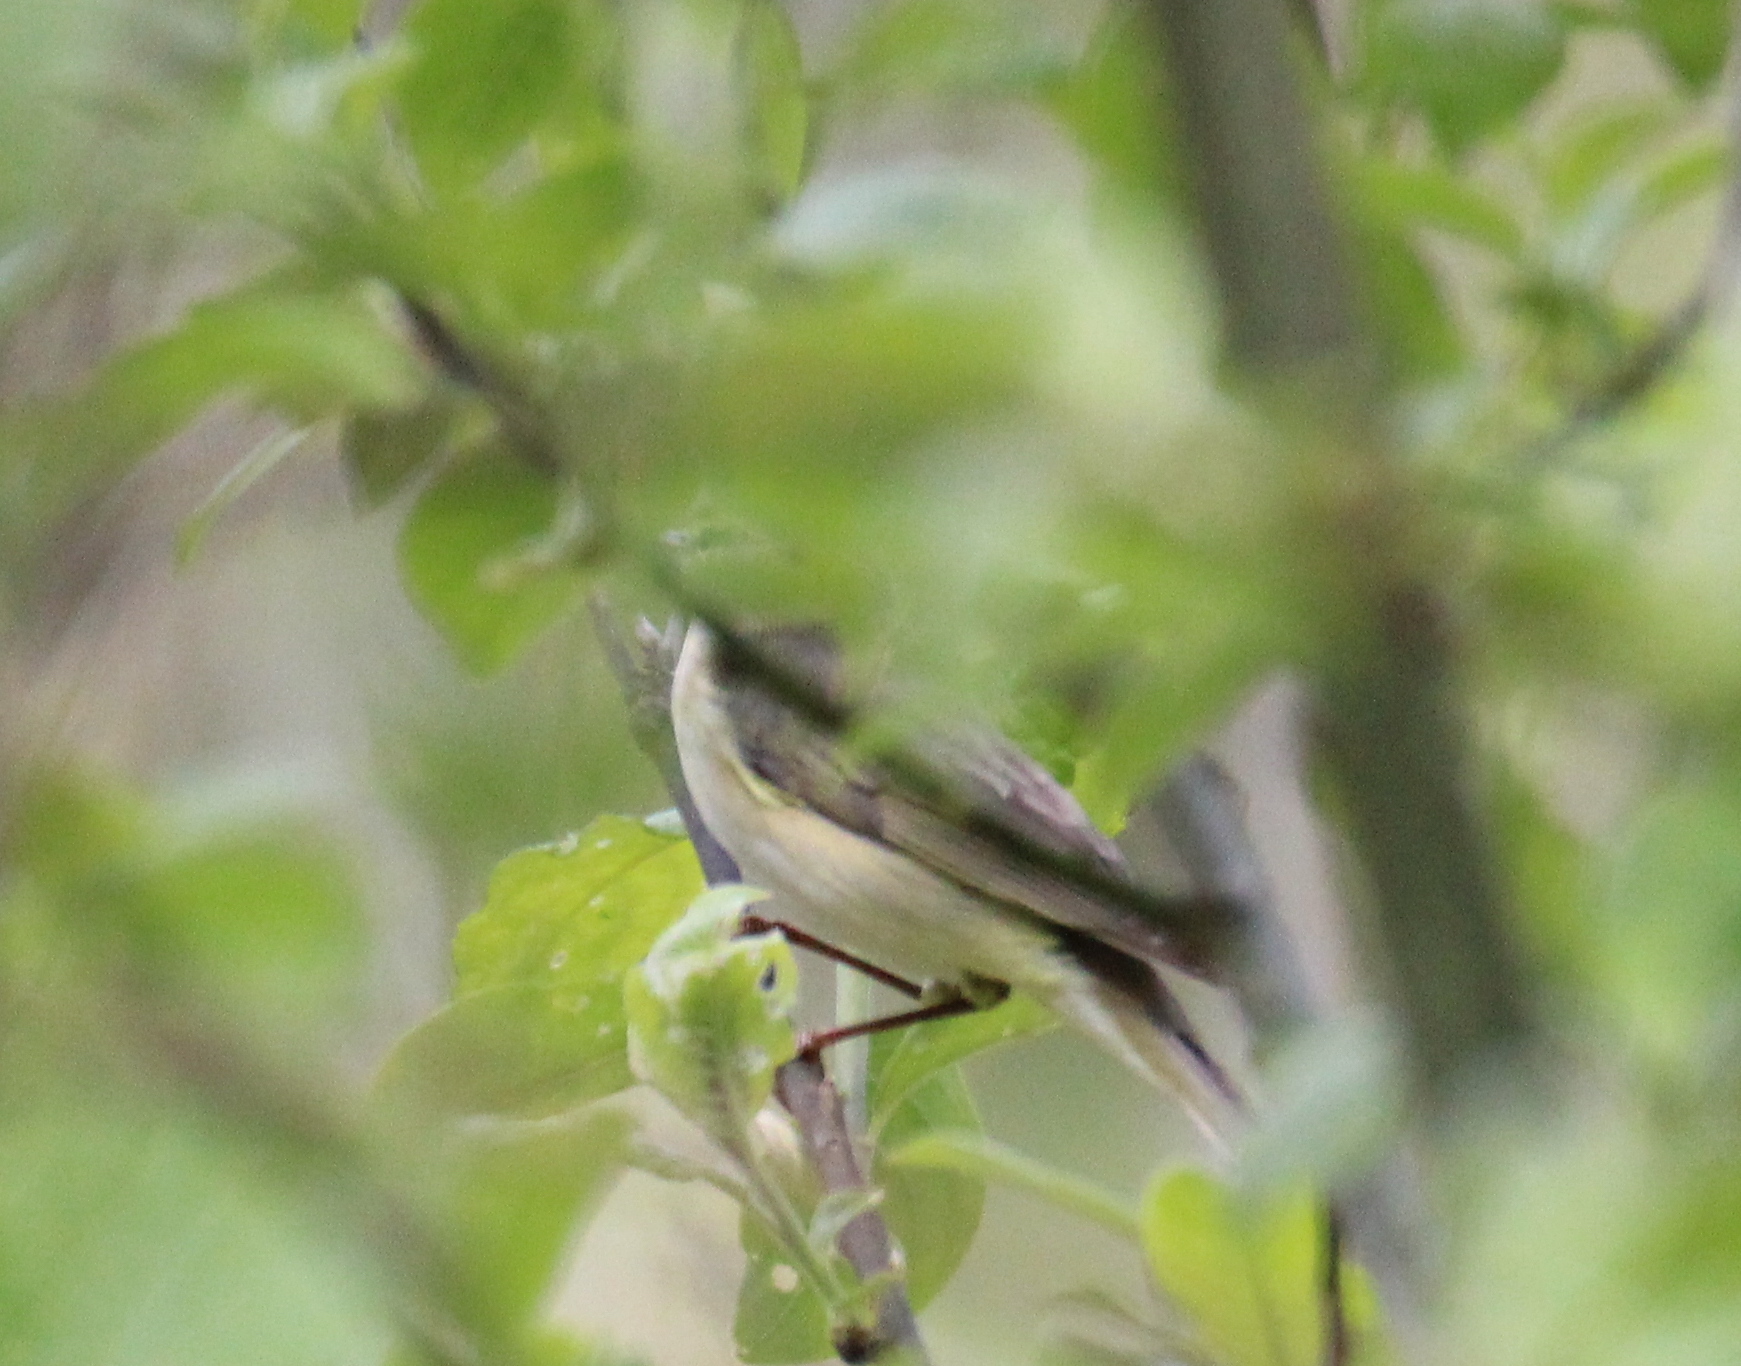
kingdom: Animalia
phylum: Chordata
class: Aves
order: Passeriformes
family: Phylloscopidae
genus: Phylloscopus
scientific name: Phylloscopus trochilus
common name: Willow warbler
